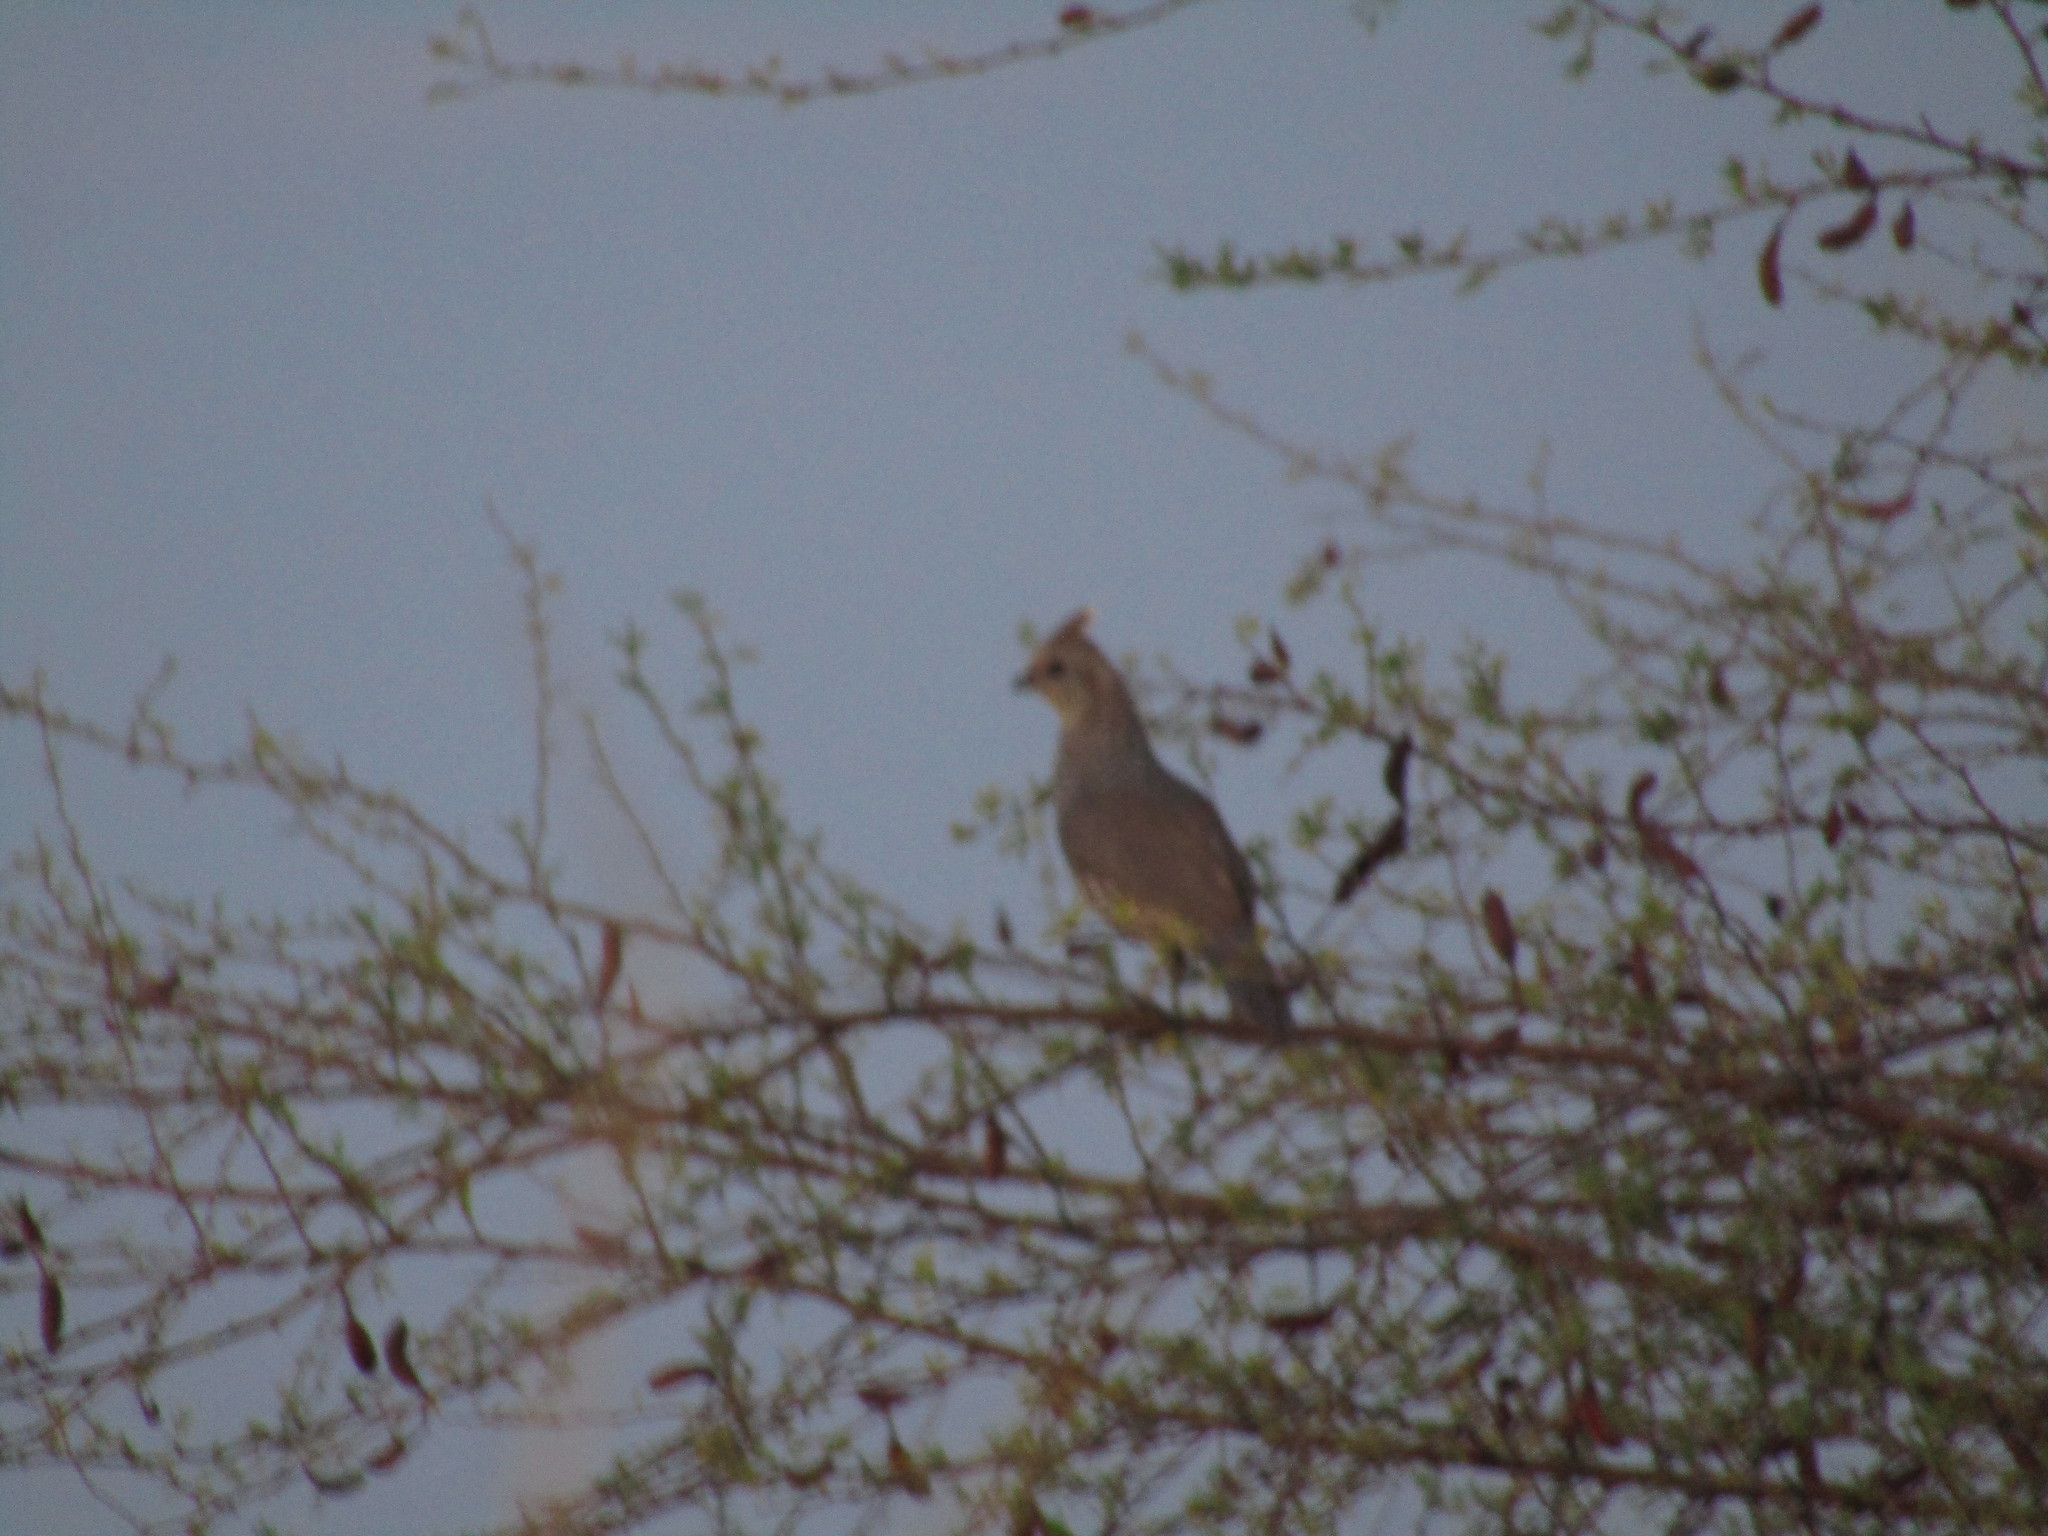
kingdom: Animalia
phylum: Chordata
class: Aves
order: Galliformes
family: Odontophoridae
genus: Callipepla
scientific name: Callipepla squamata
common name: Scaled quail
